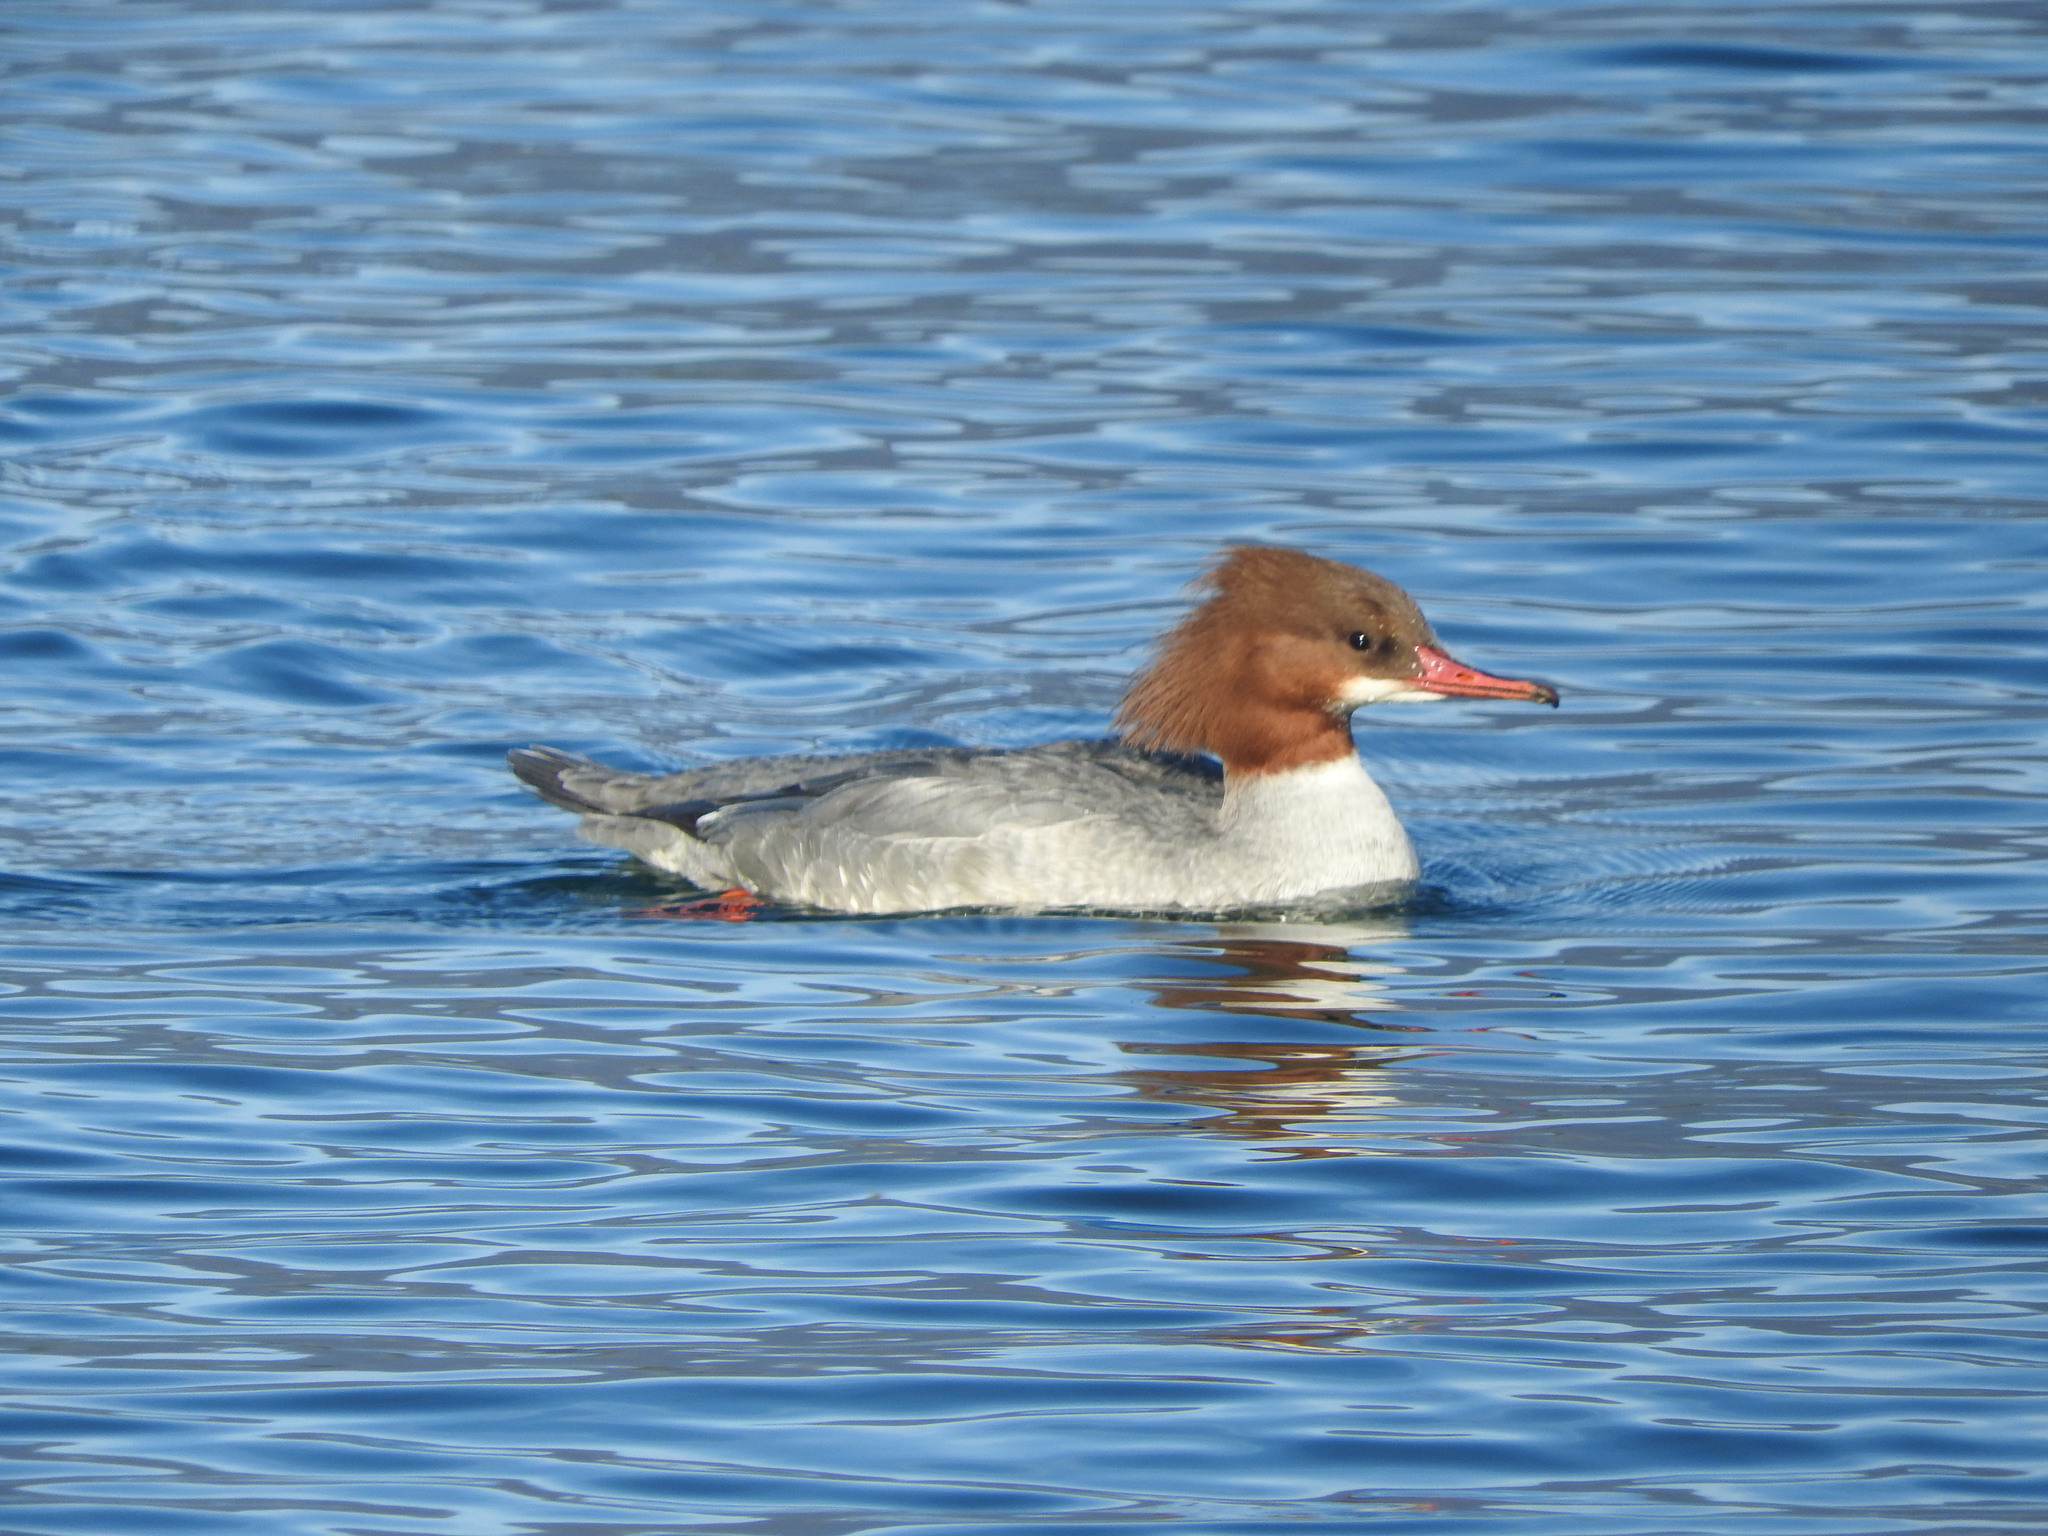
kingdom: Animalia
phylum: Chordata
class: Aves
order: Anseriformes
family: Anatidae
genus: Mergus
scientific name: Mergus merganser
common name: Common merganser
